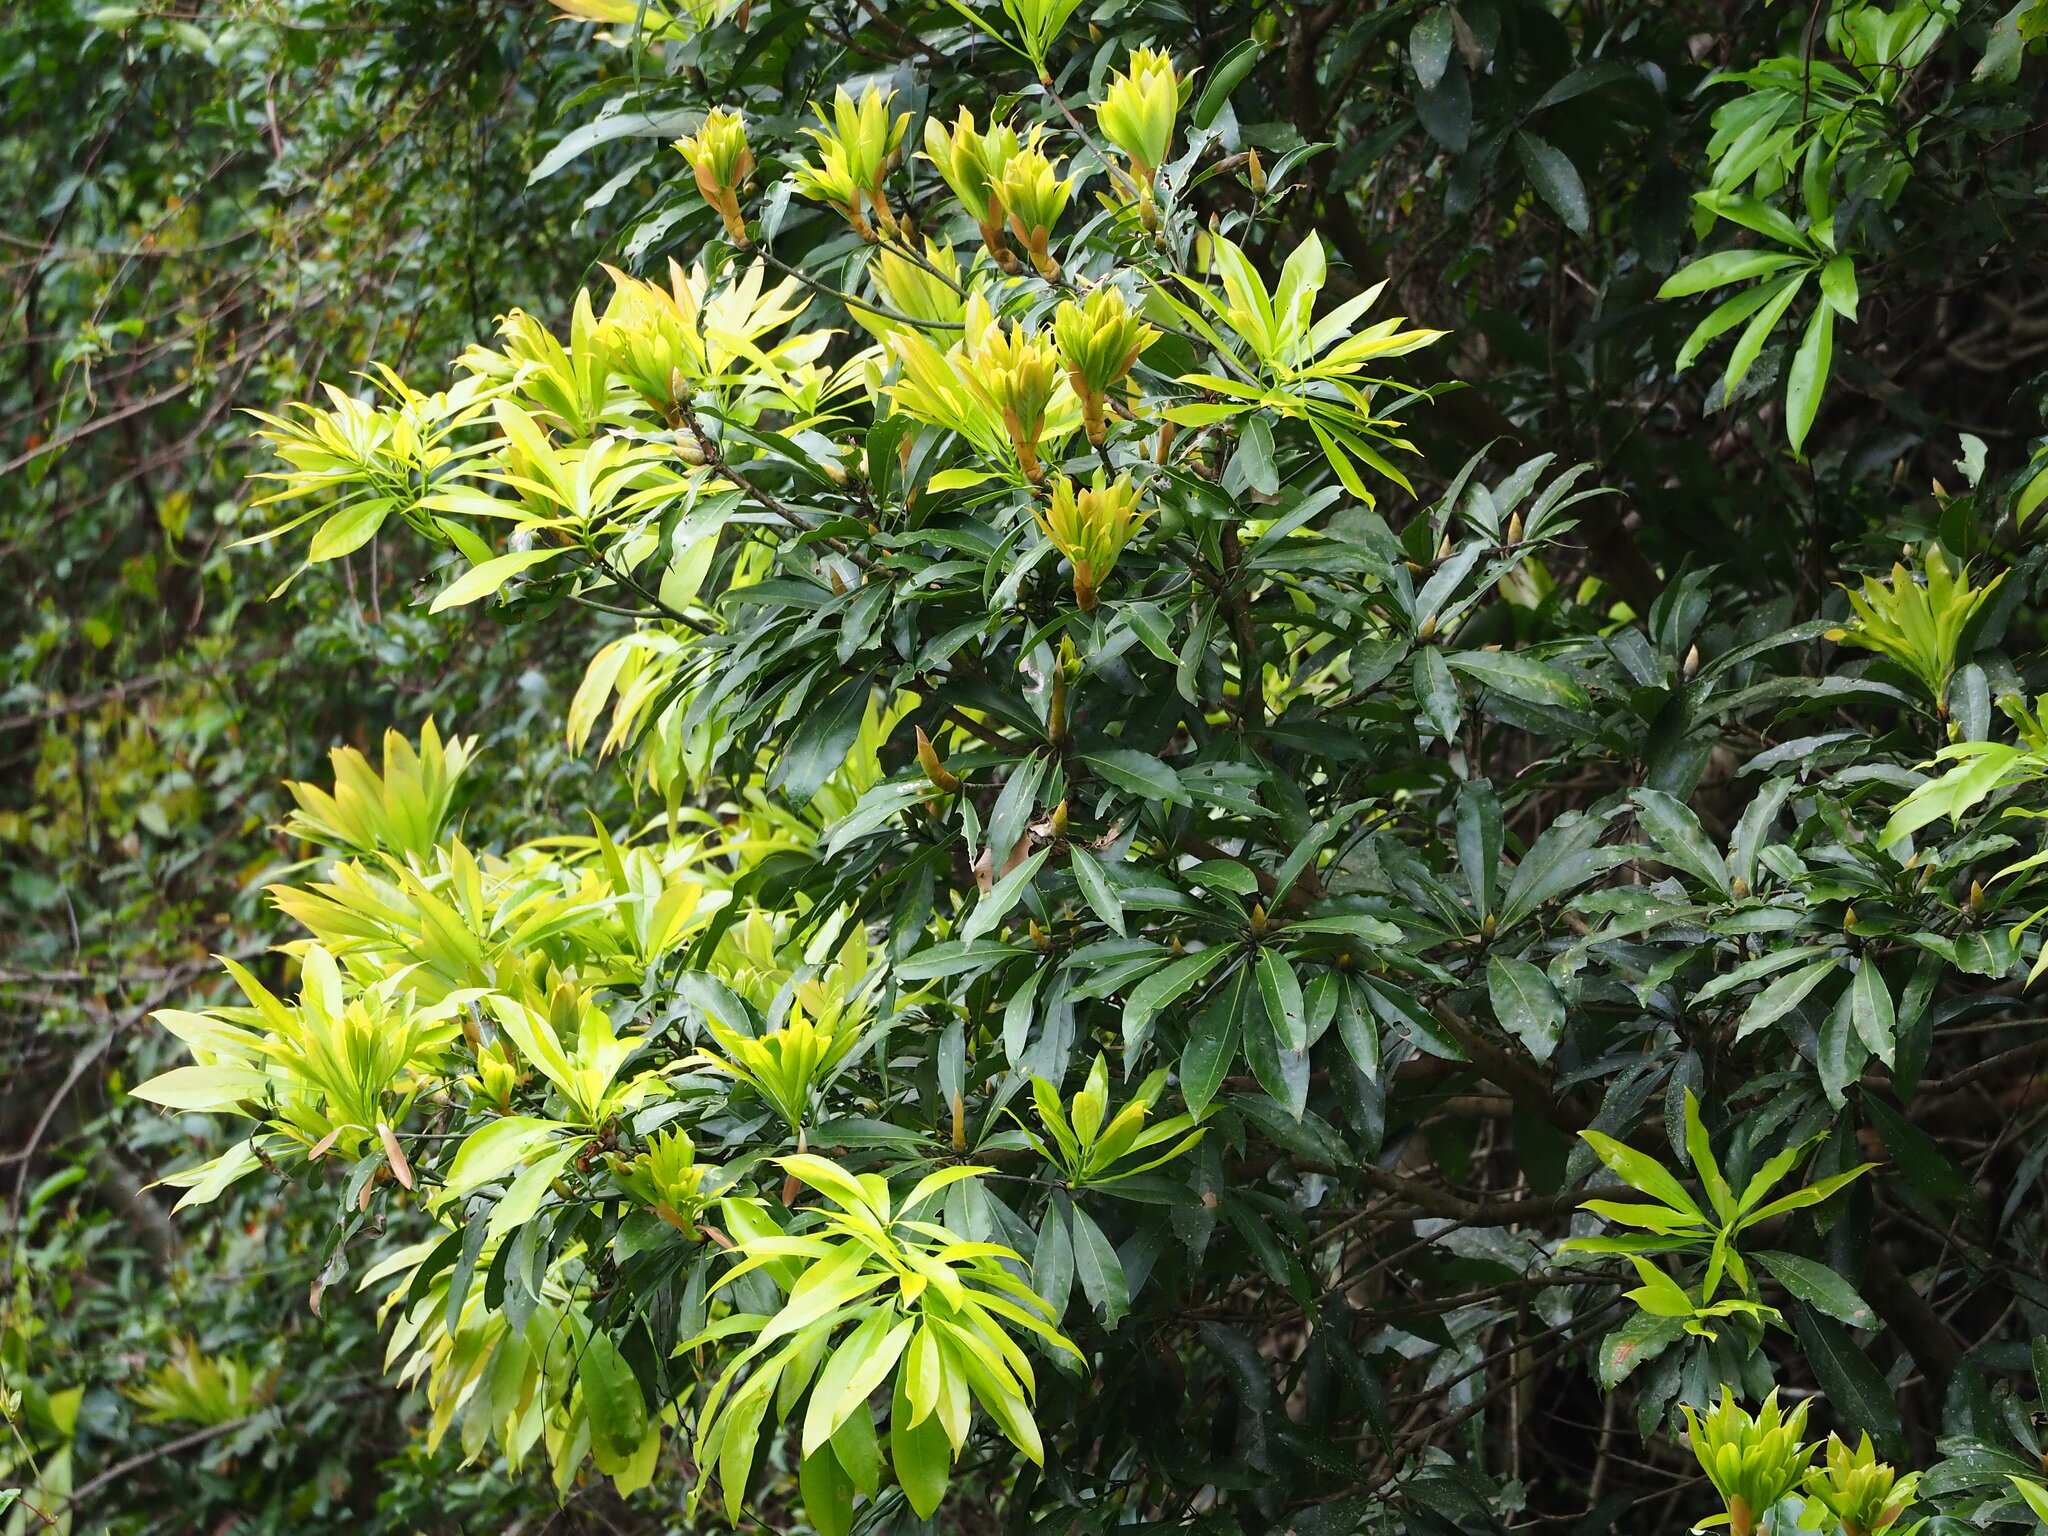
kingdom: Plantae
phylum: Tracheophyta
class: Magnoliopsida
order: Laurales
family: Lauraceae
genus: Machilus
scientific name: Machilus zuihoensis
